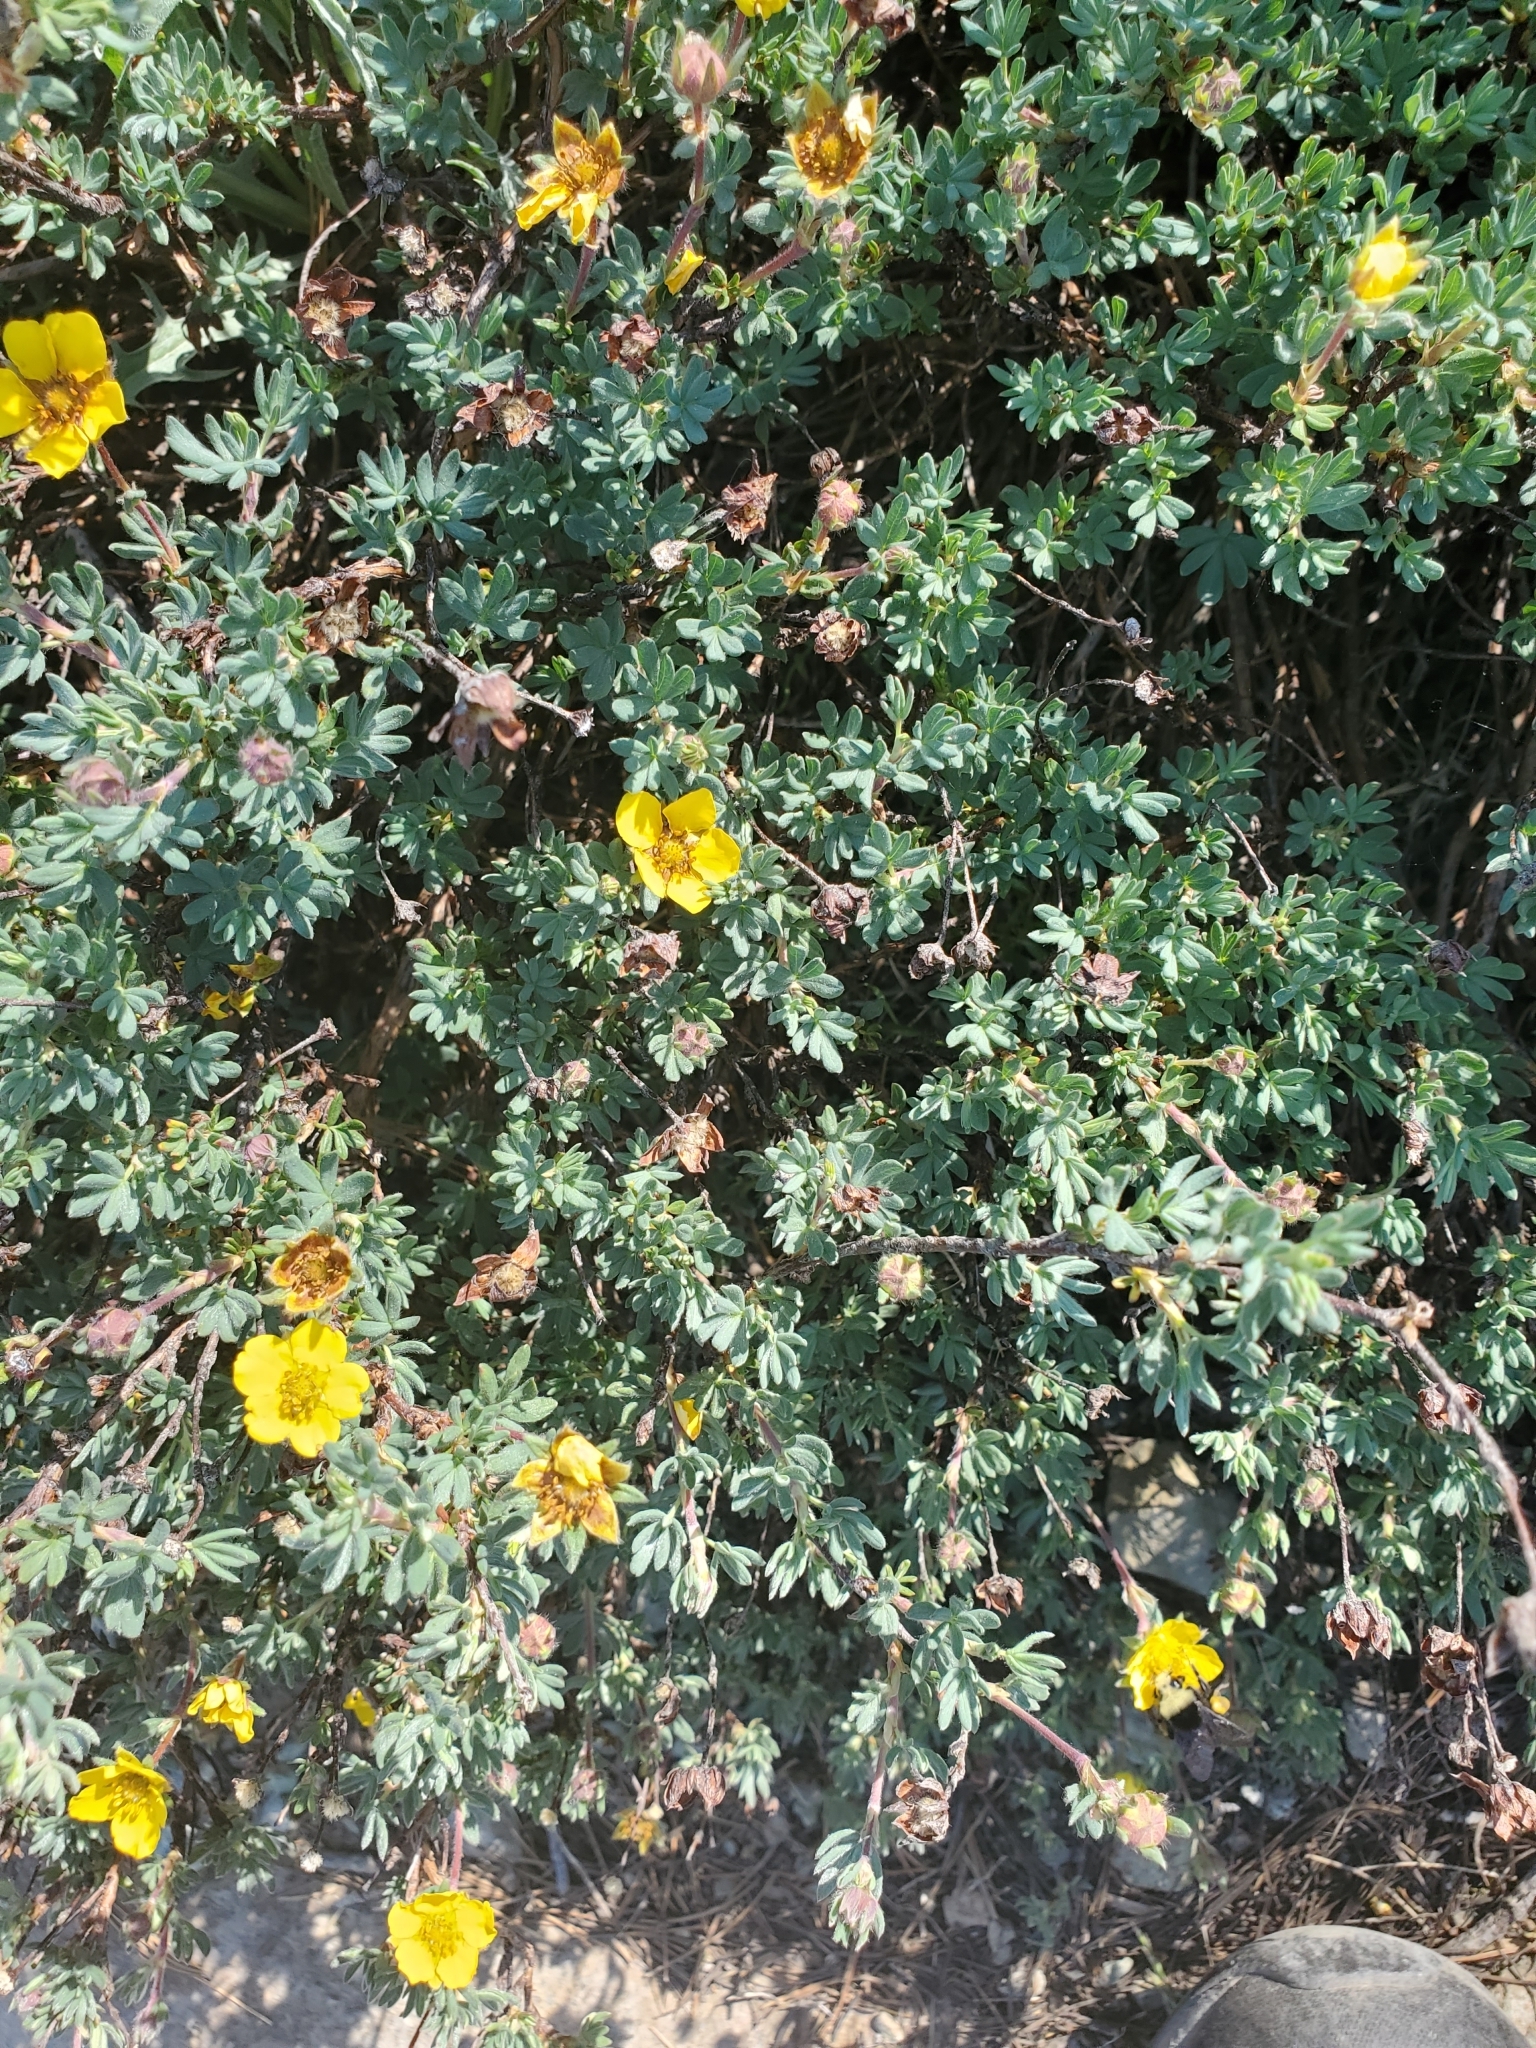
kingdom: Plantae
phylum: Tracheophyta
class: Magnoliopsida
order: Rosales
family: Rosaceae
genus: Dasiphora
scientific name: Dasiphora fruticosa
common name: Shrubby cinquefoil
